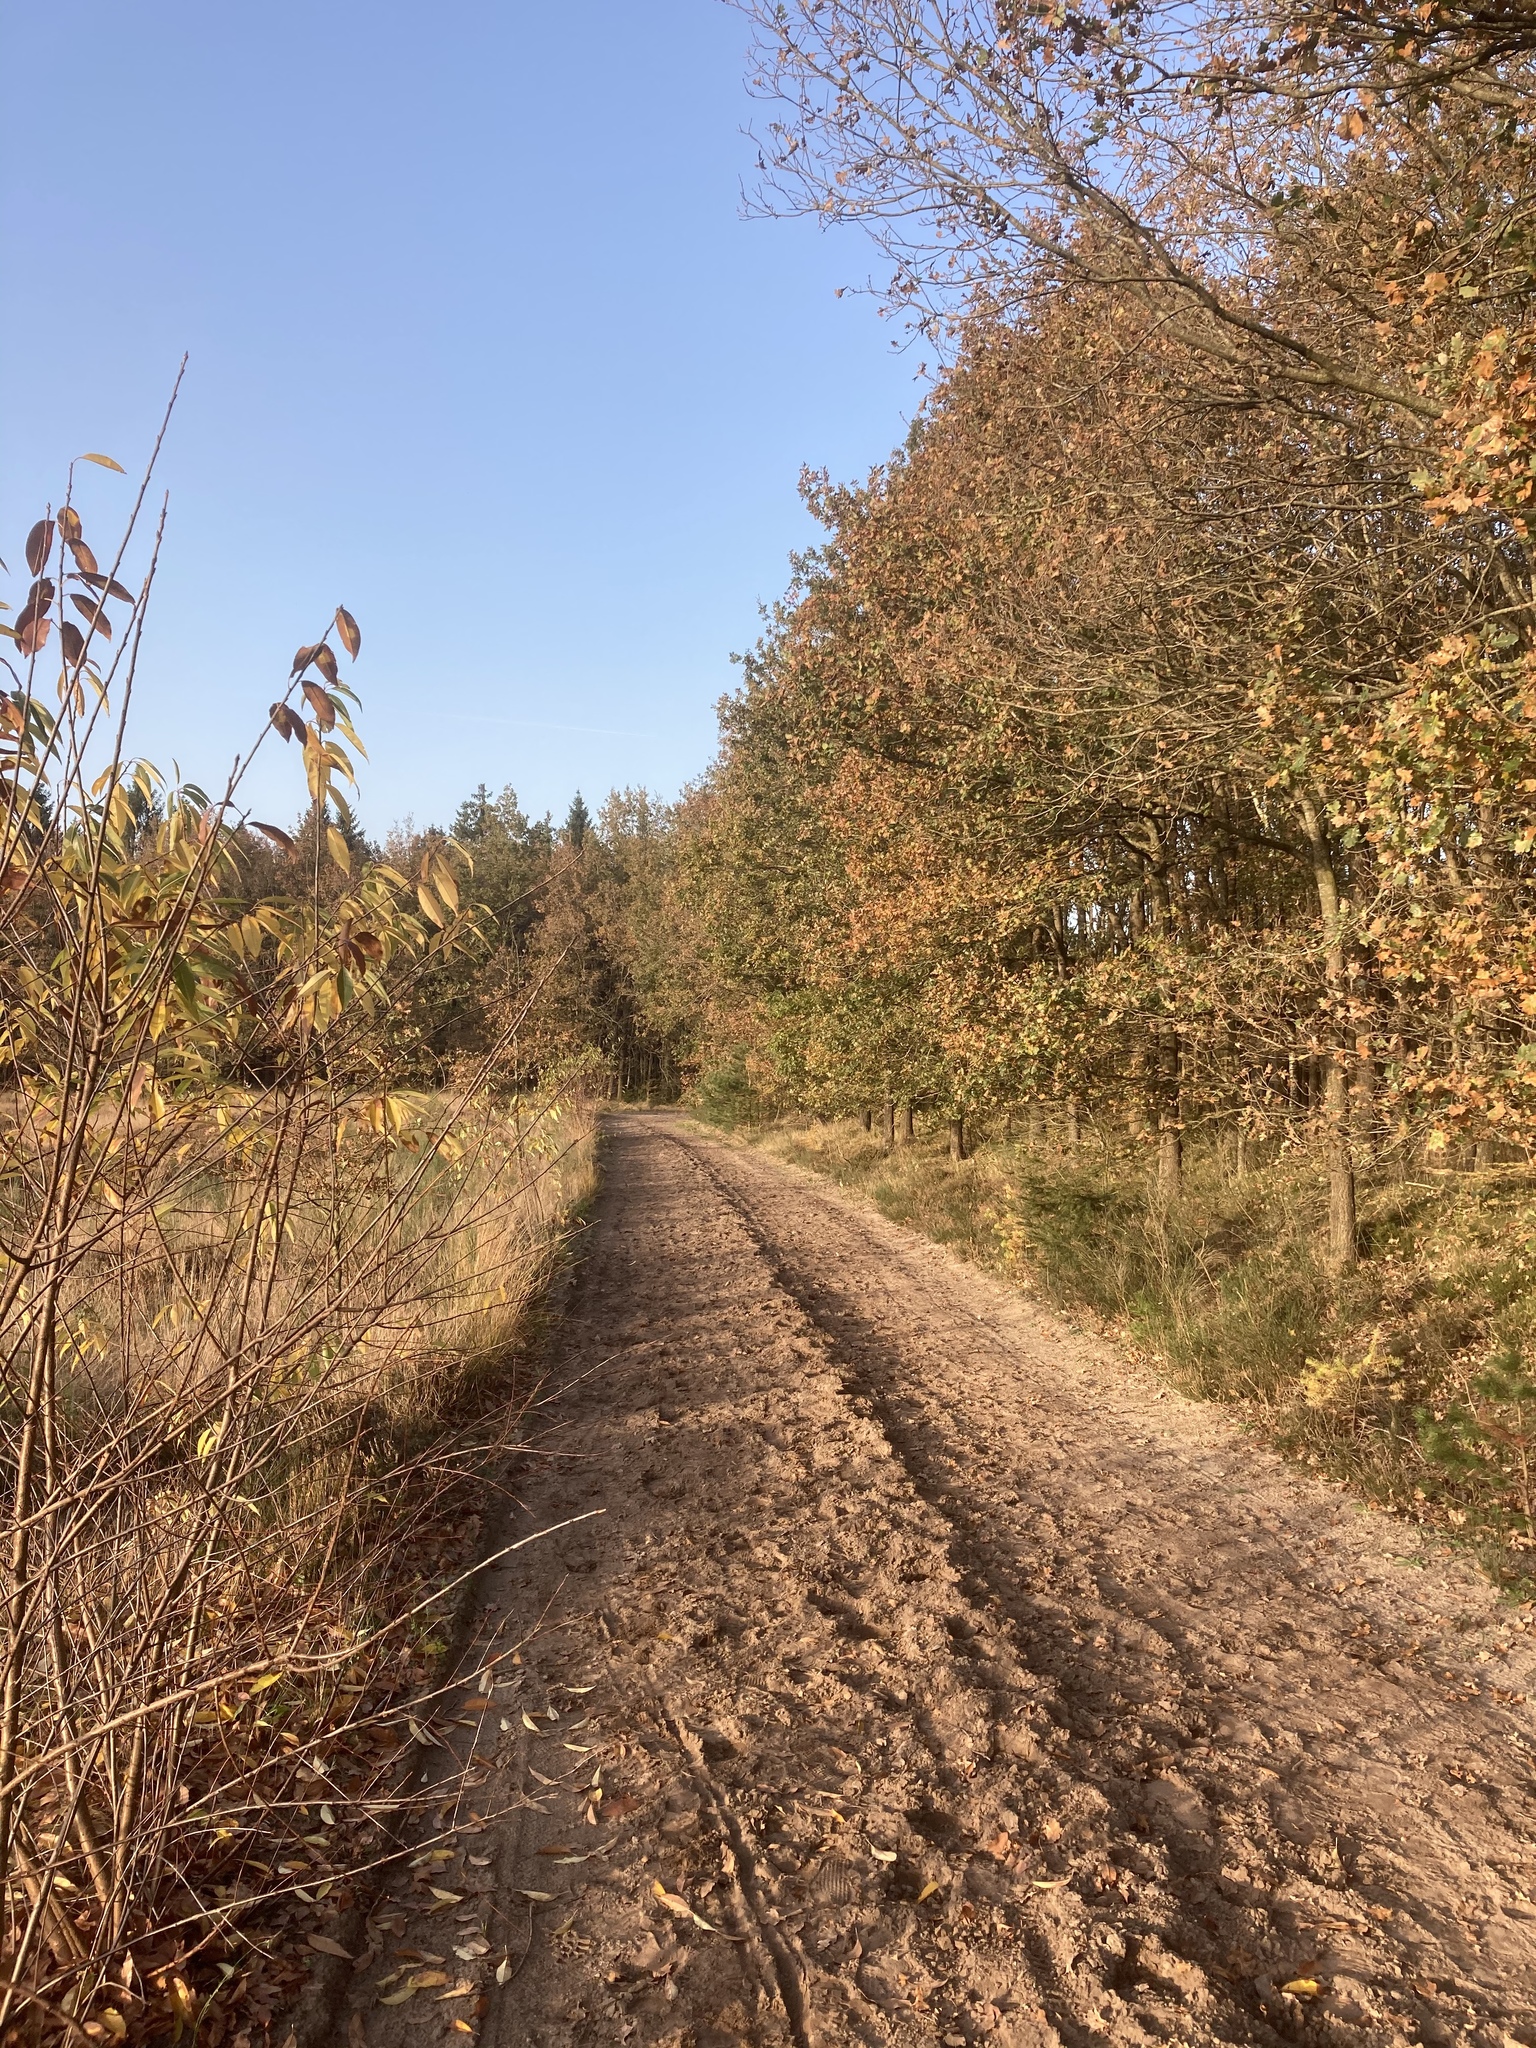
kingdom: Plantae
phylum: Tracheophyta
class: Magnoliopsida
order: Rosales
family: Rosaceae
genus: Prunus
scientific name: Prunus serotina
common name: Black cherry
